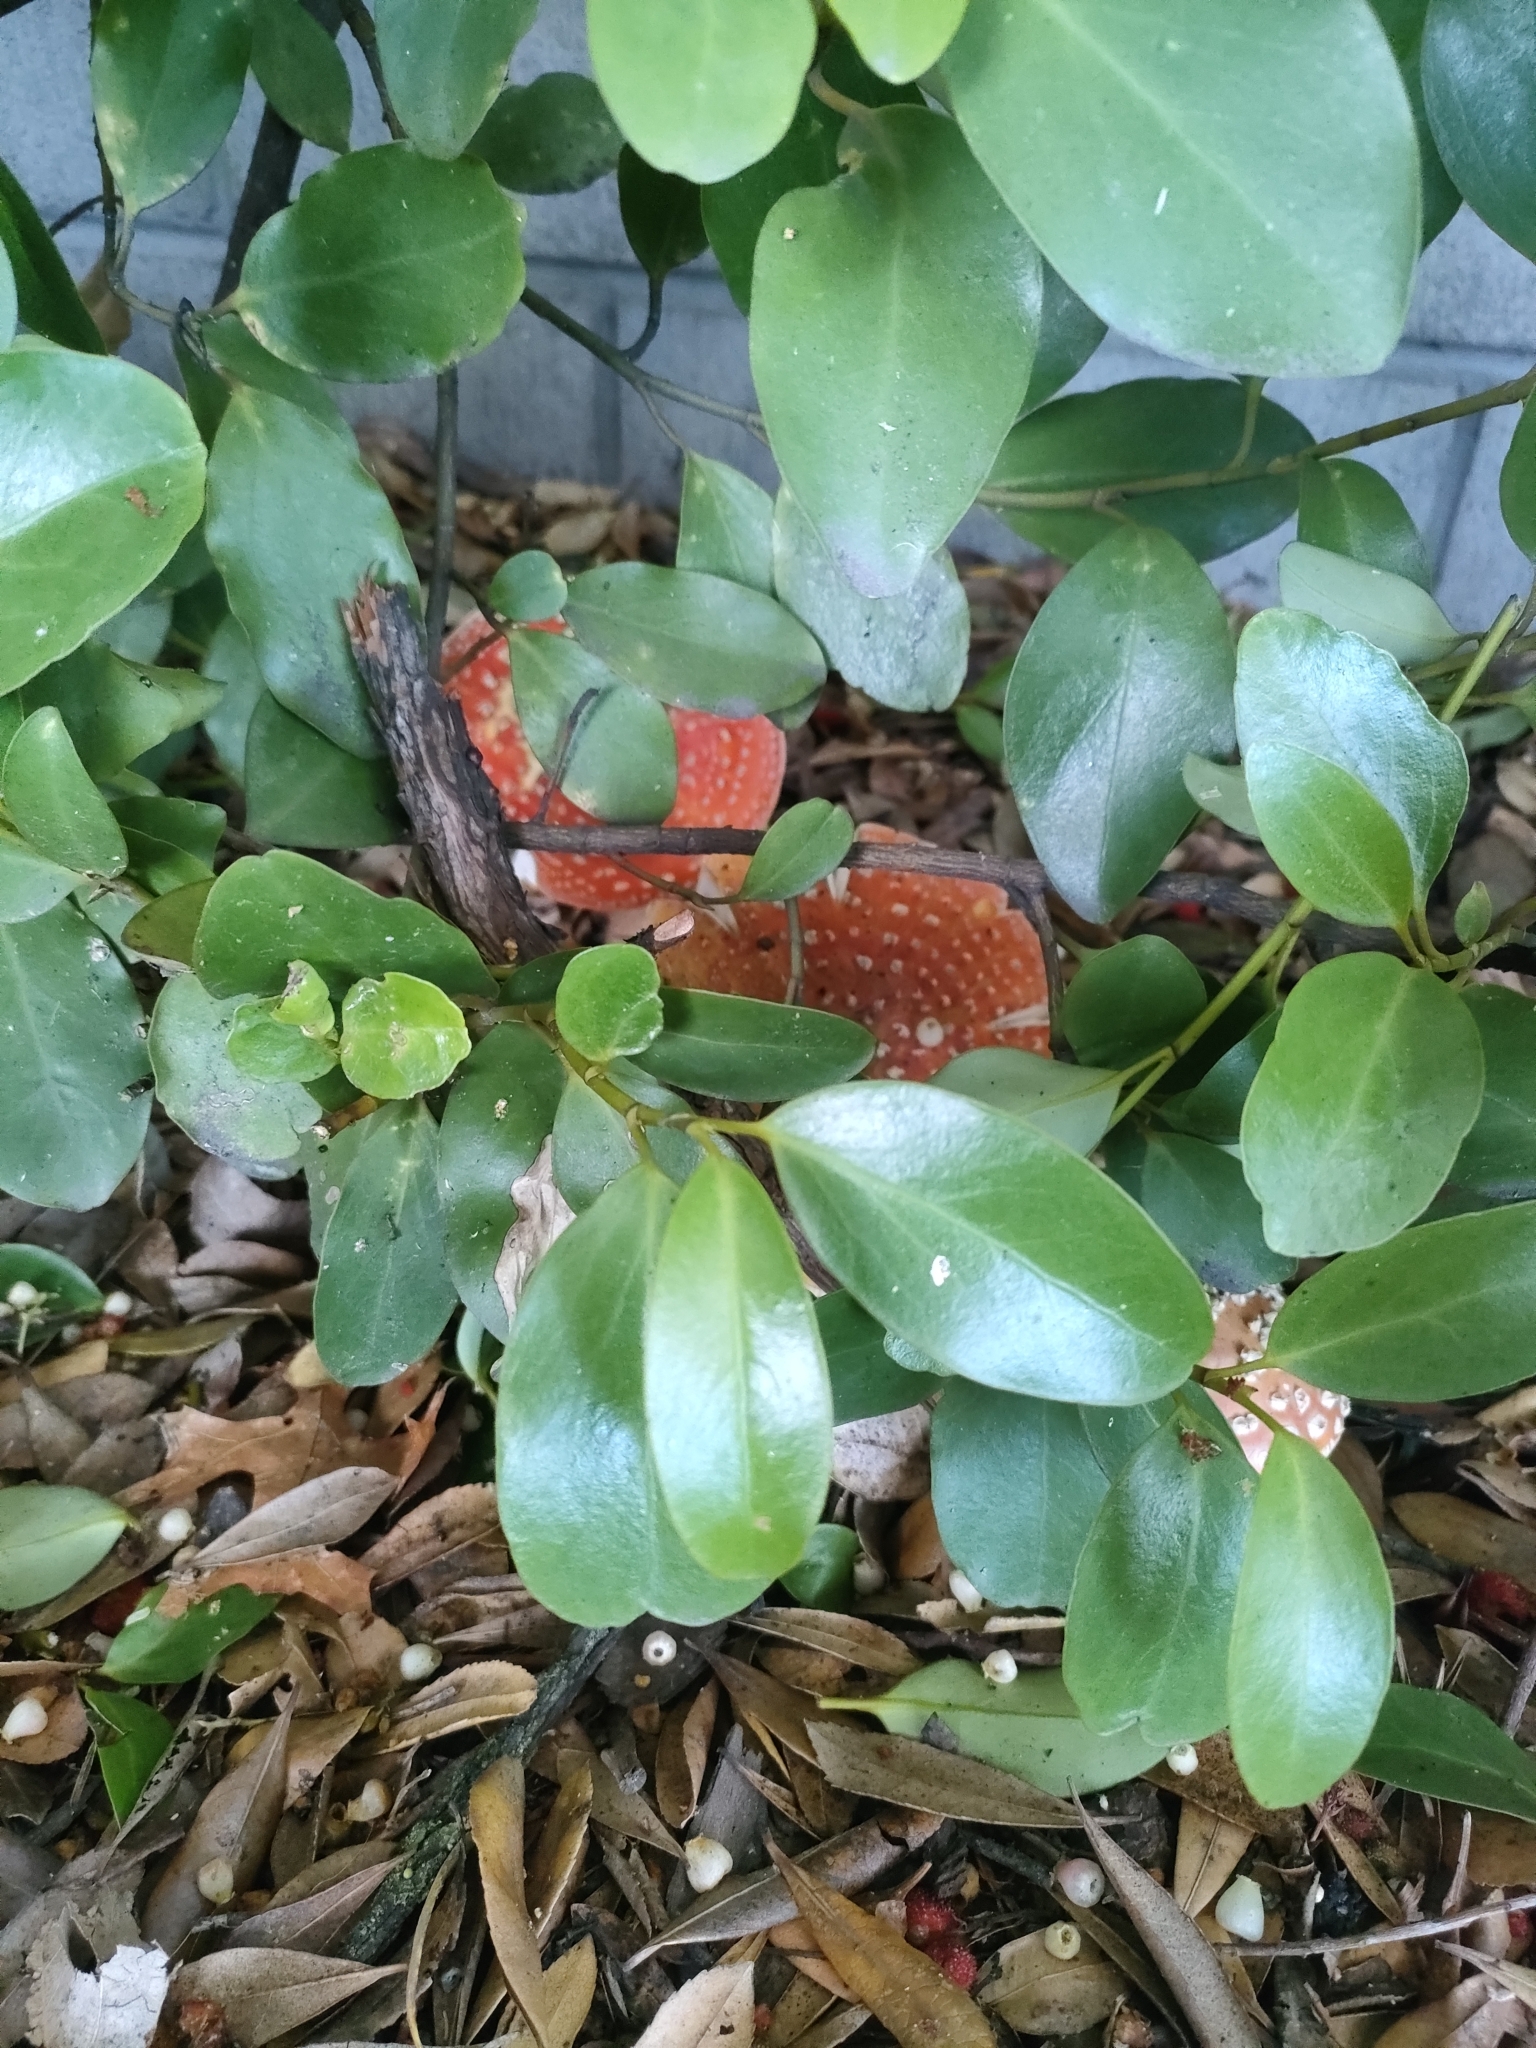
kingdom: Fungi
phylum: Basidiomycota
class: Agaricomycetes
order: Agaricales
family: Amanitaceae
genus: Amanita
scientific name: Amanita muscaria
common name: Fly agaric
